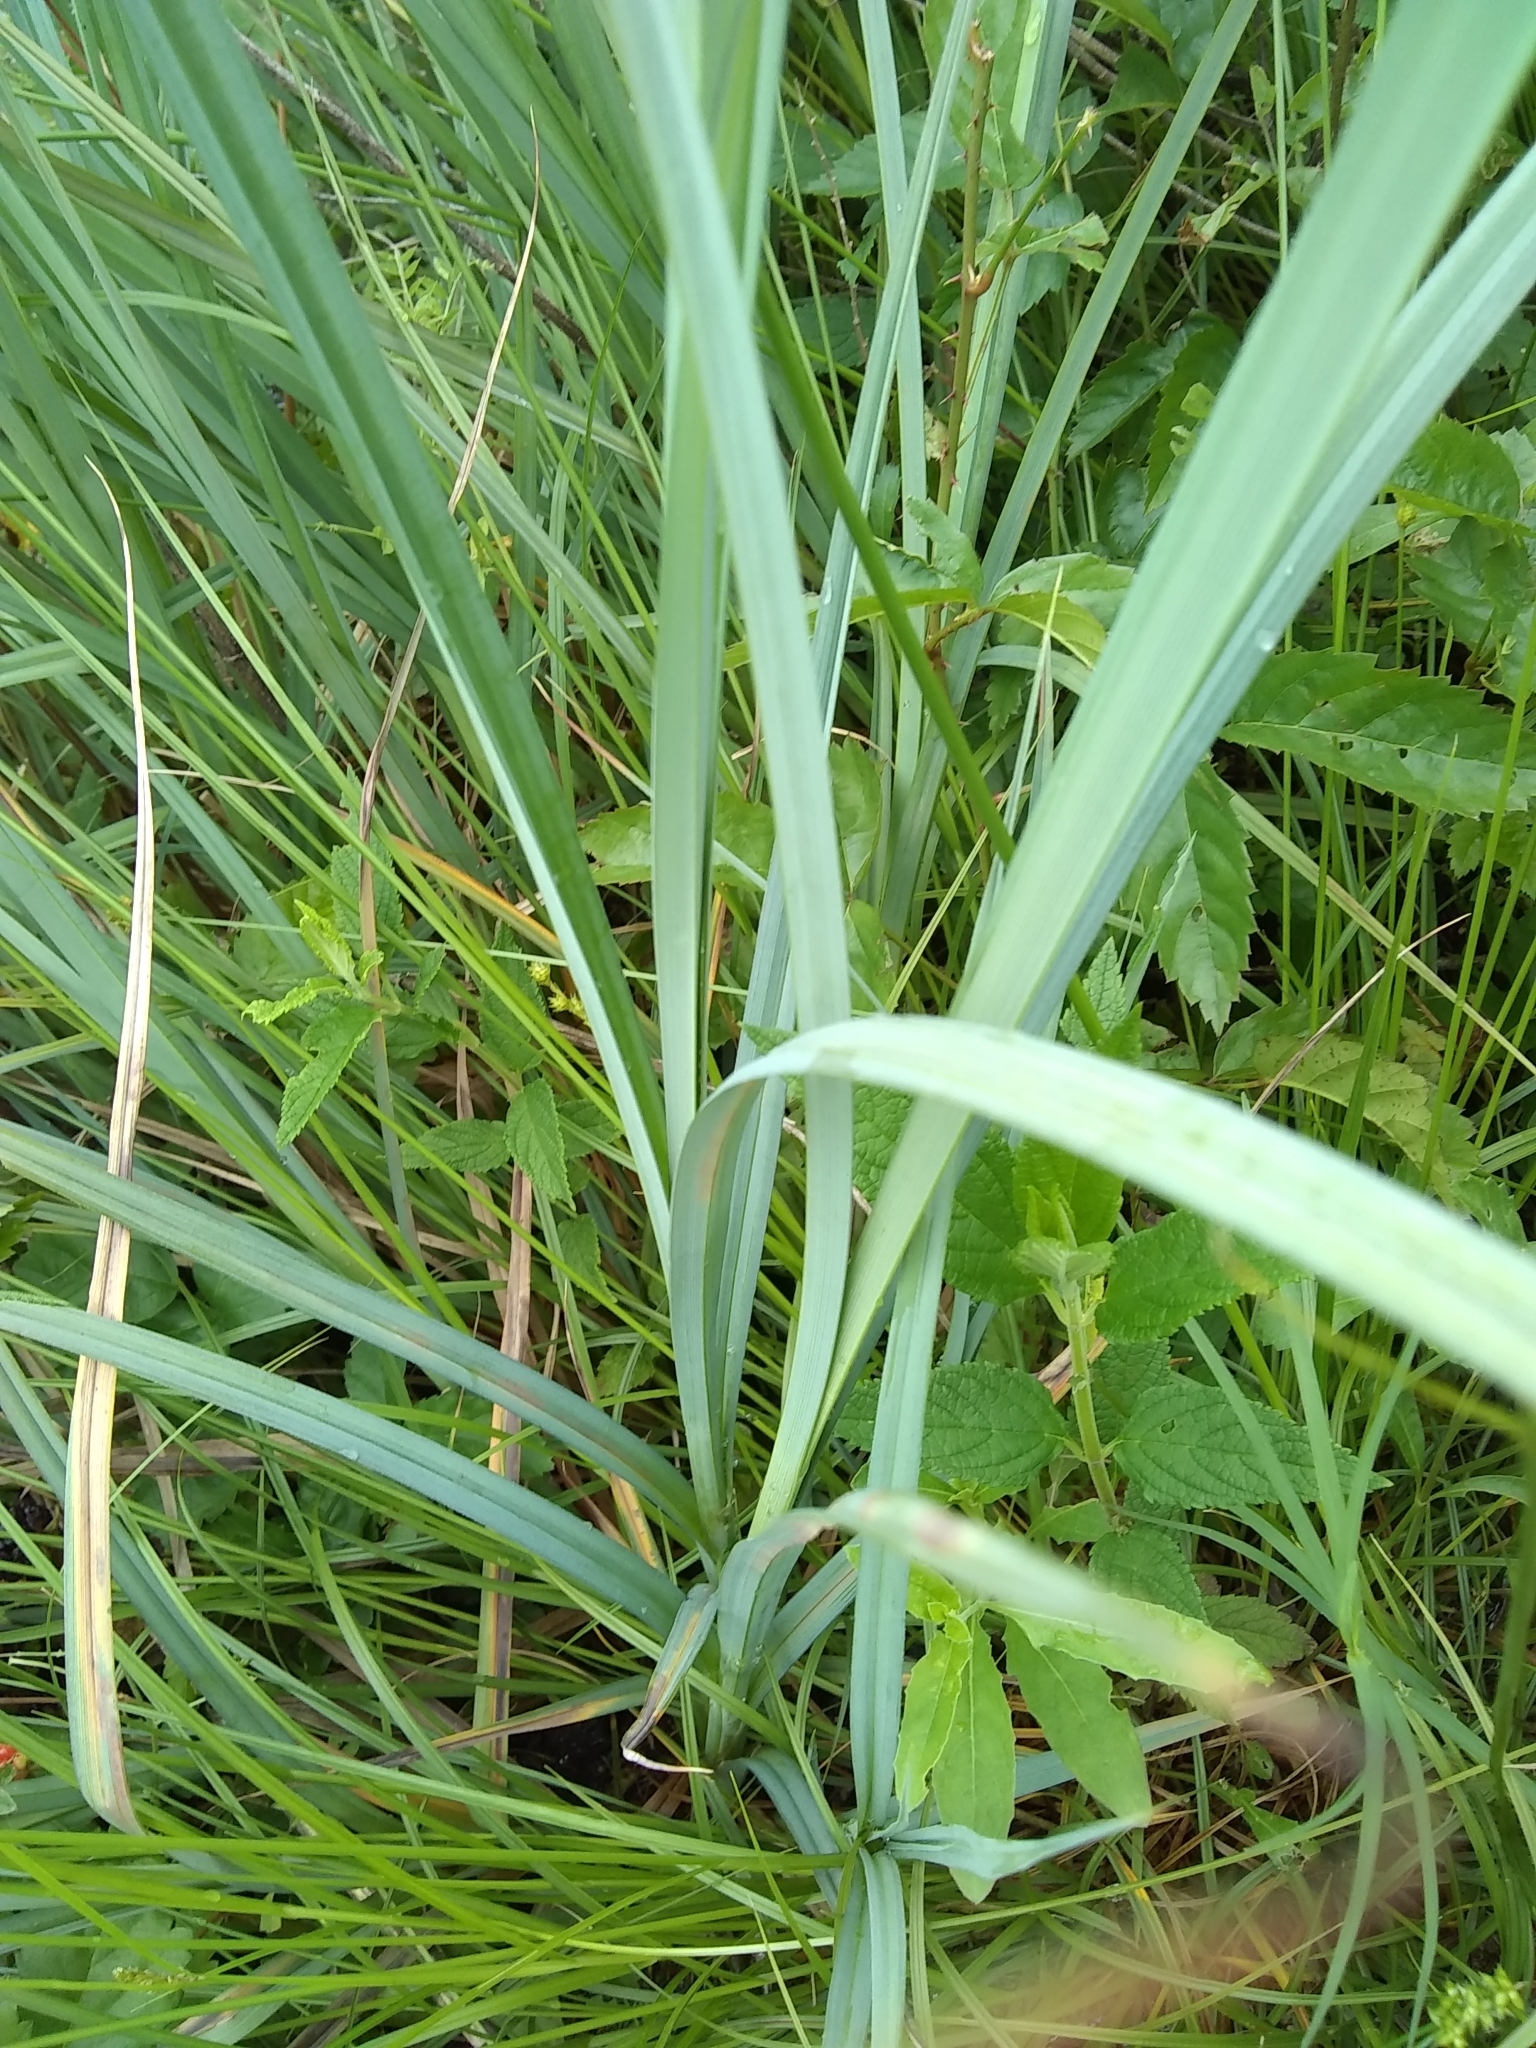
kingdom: Plantae
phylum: Tracheophyta
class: Liliopsida
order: Poales
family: Cyperaceae
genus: Carex
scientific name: Carex crus-corvi
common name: Crow-spur sedge
